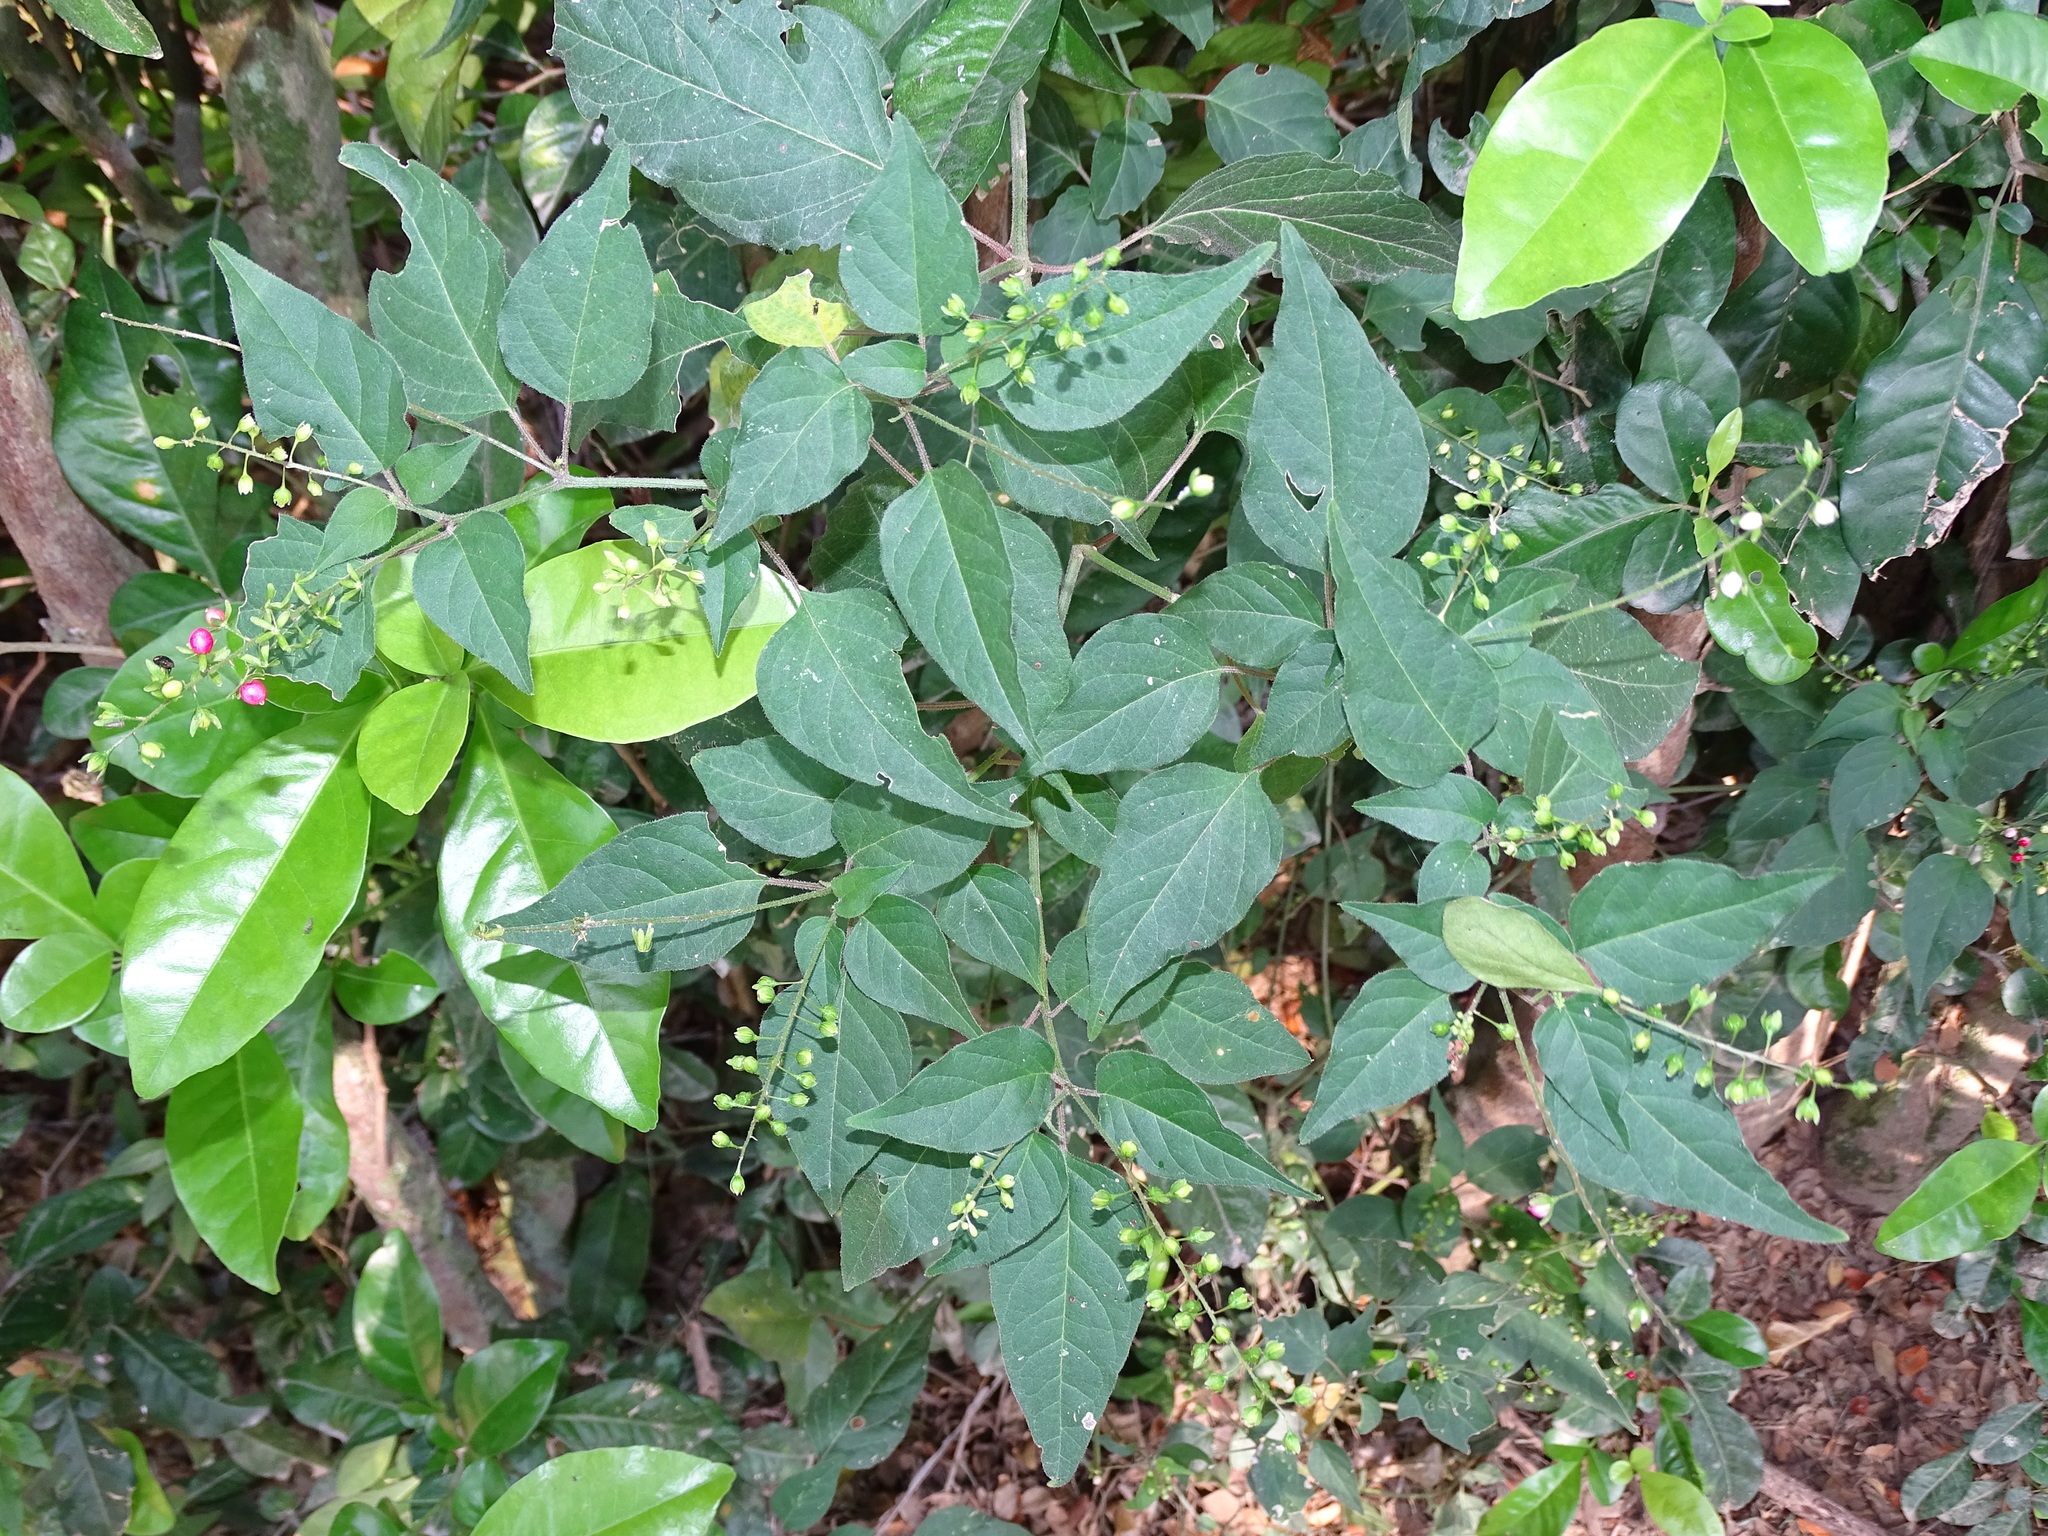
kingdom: Plantae
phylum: Tracheophyta
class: Magnoliopsida
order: Caryophyllales
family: Phytolaccaceae
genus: Rivina
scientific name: Rivina humilis
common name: Rougeplant
